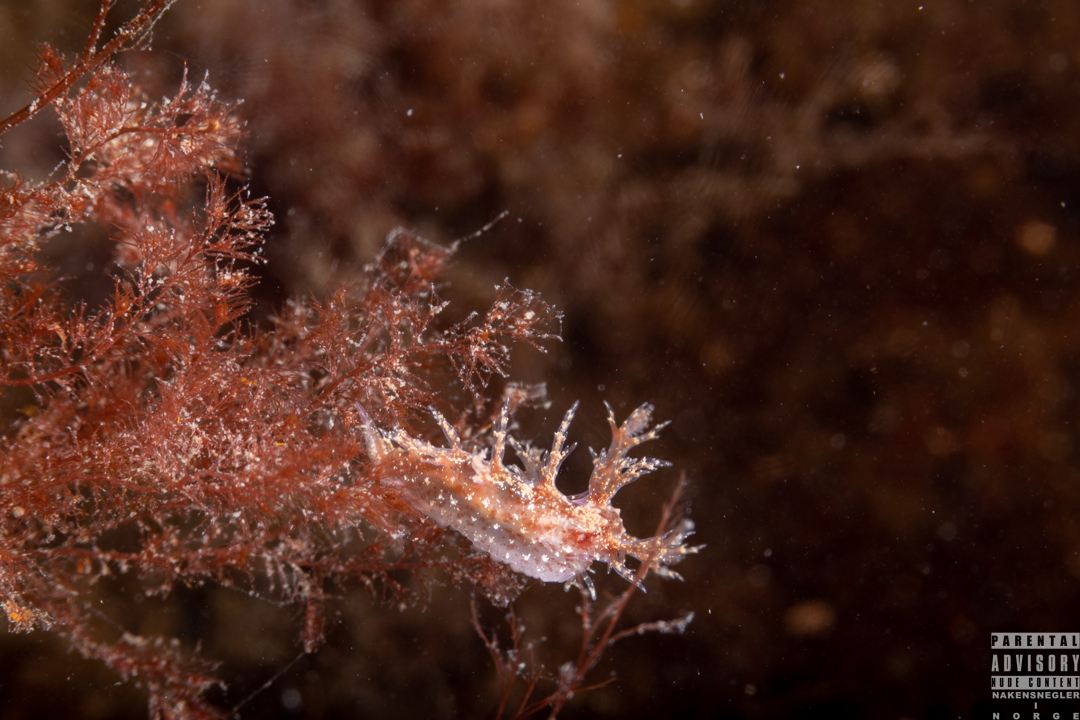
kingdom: Animalia
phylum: Mollusca
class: Gastropoda
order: Nudibranchia
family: Dendronotidae
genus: Dendronotus
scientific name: Dendronotus frondosus
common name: Bushy-backed nudibranch
